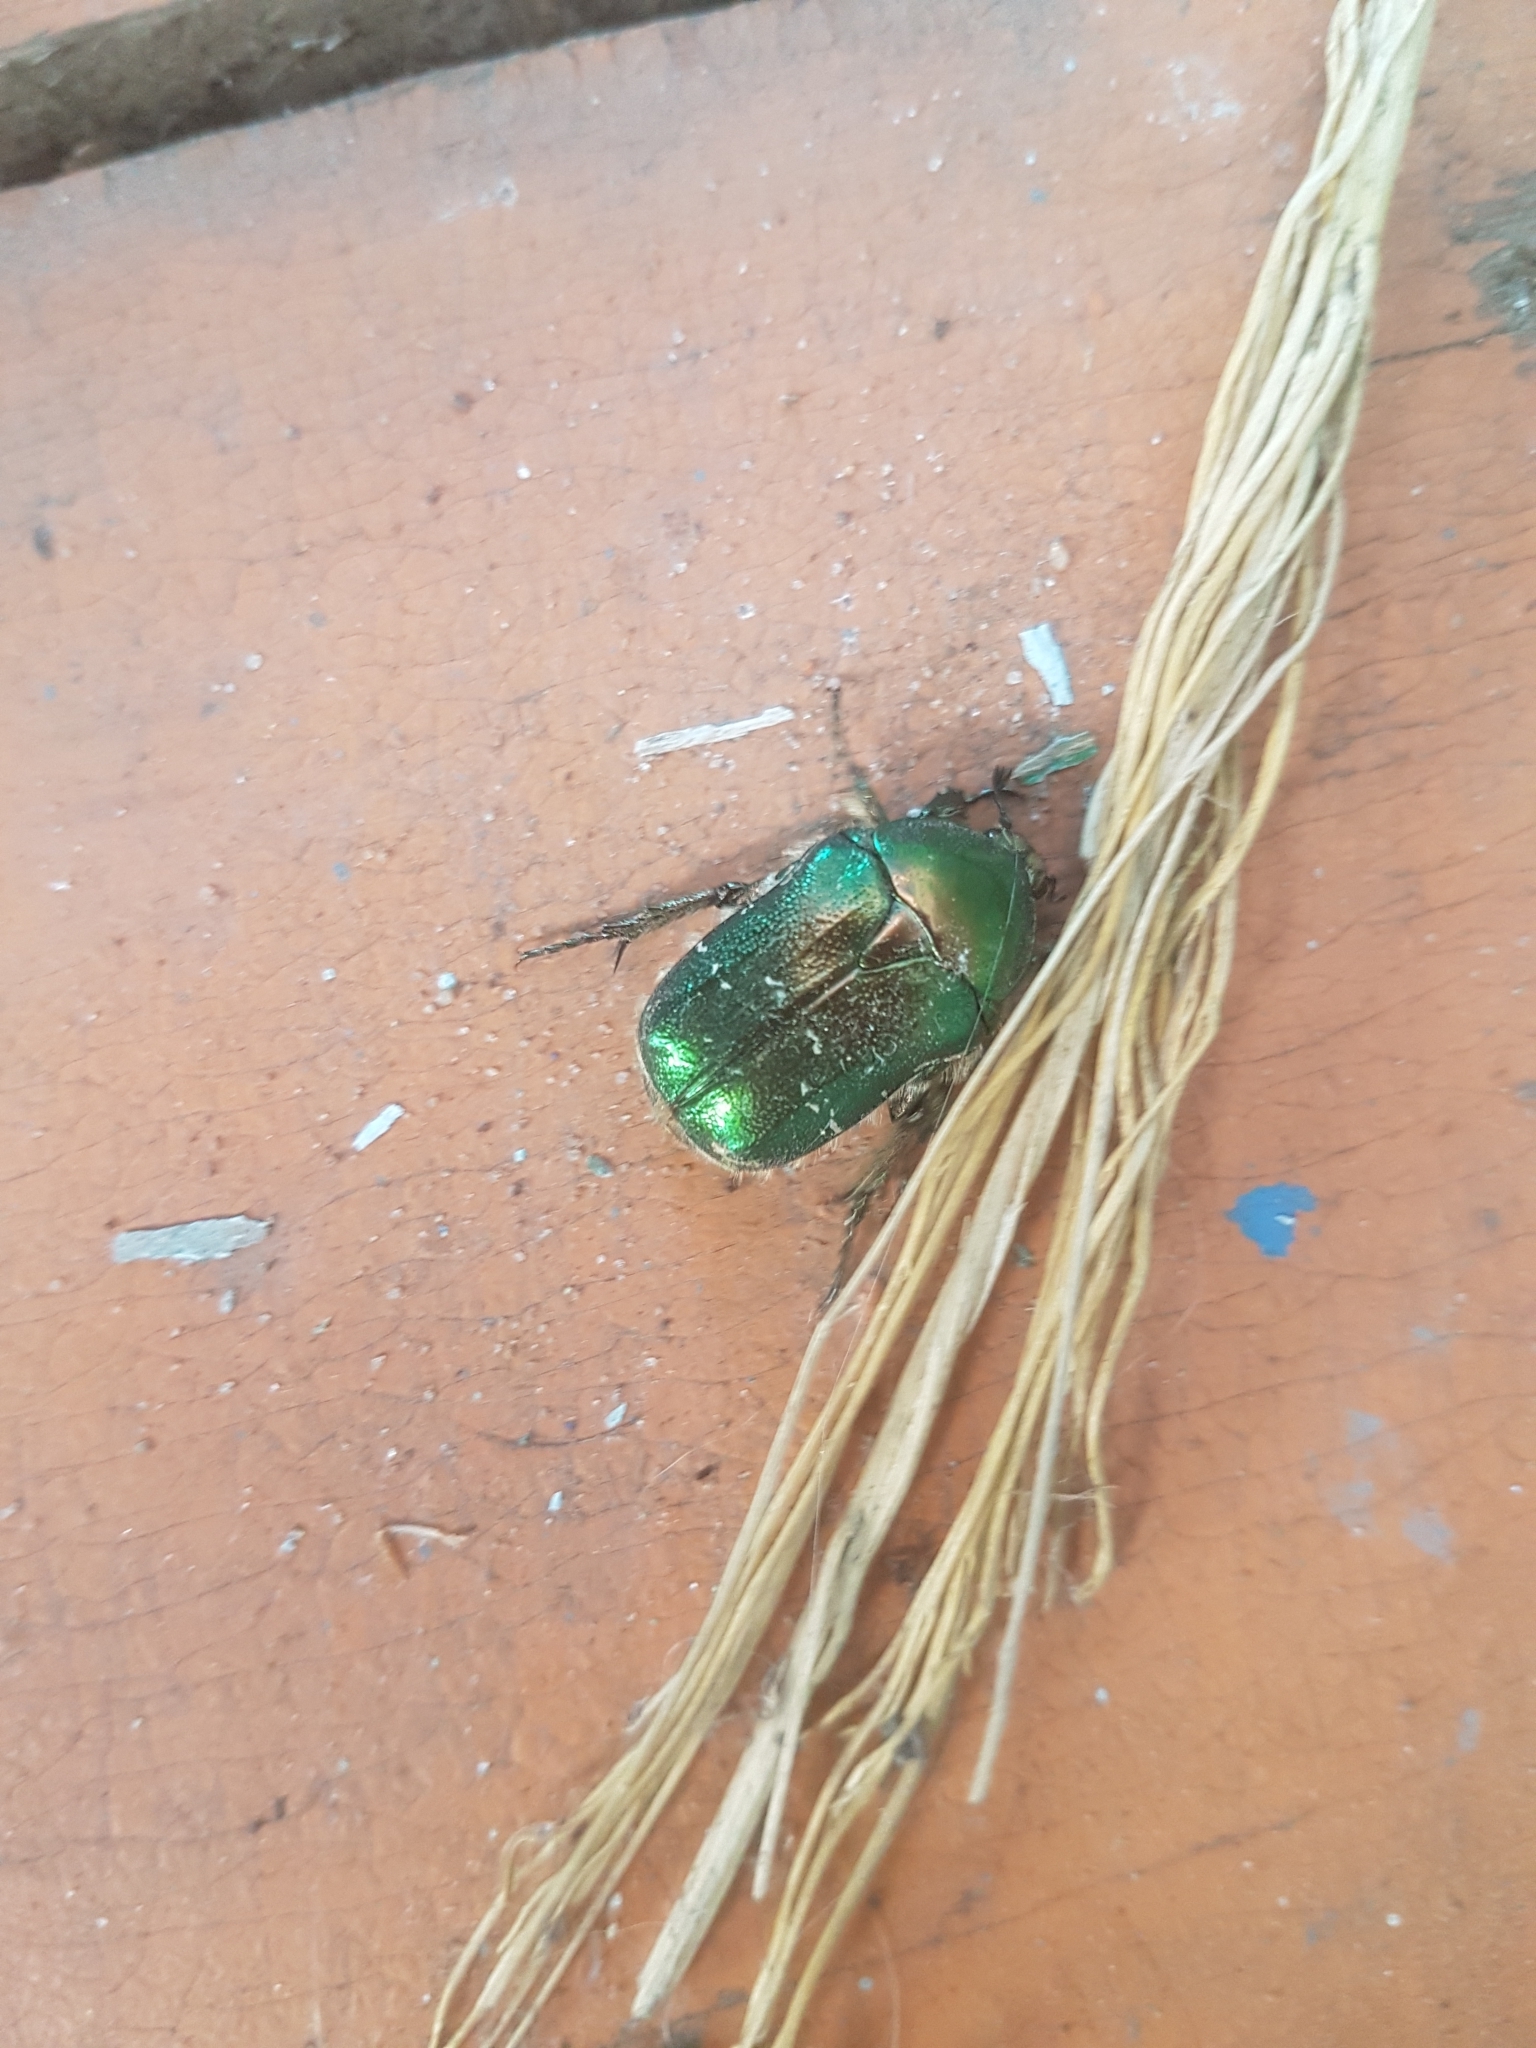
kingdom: Animalia
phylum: Arthropoda
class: Insecta
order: Coleoptera
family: Scarabaeidae
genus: Cetonia
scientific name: Cetonia aurata
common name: Rose chafer
